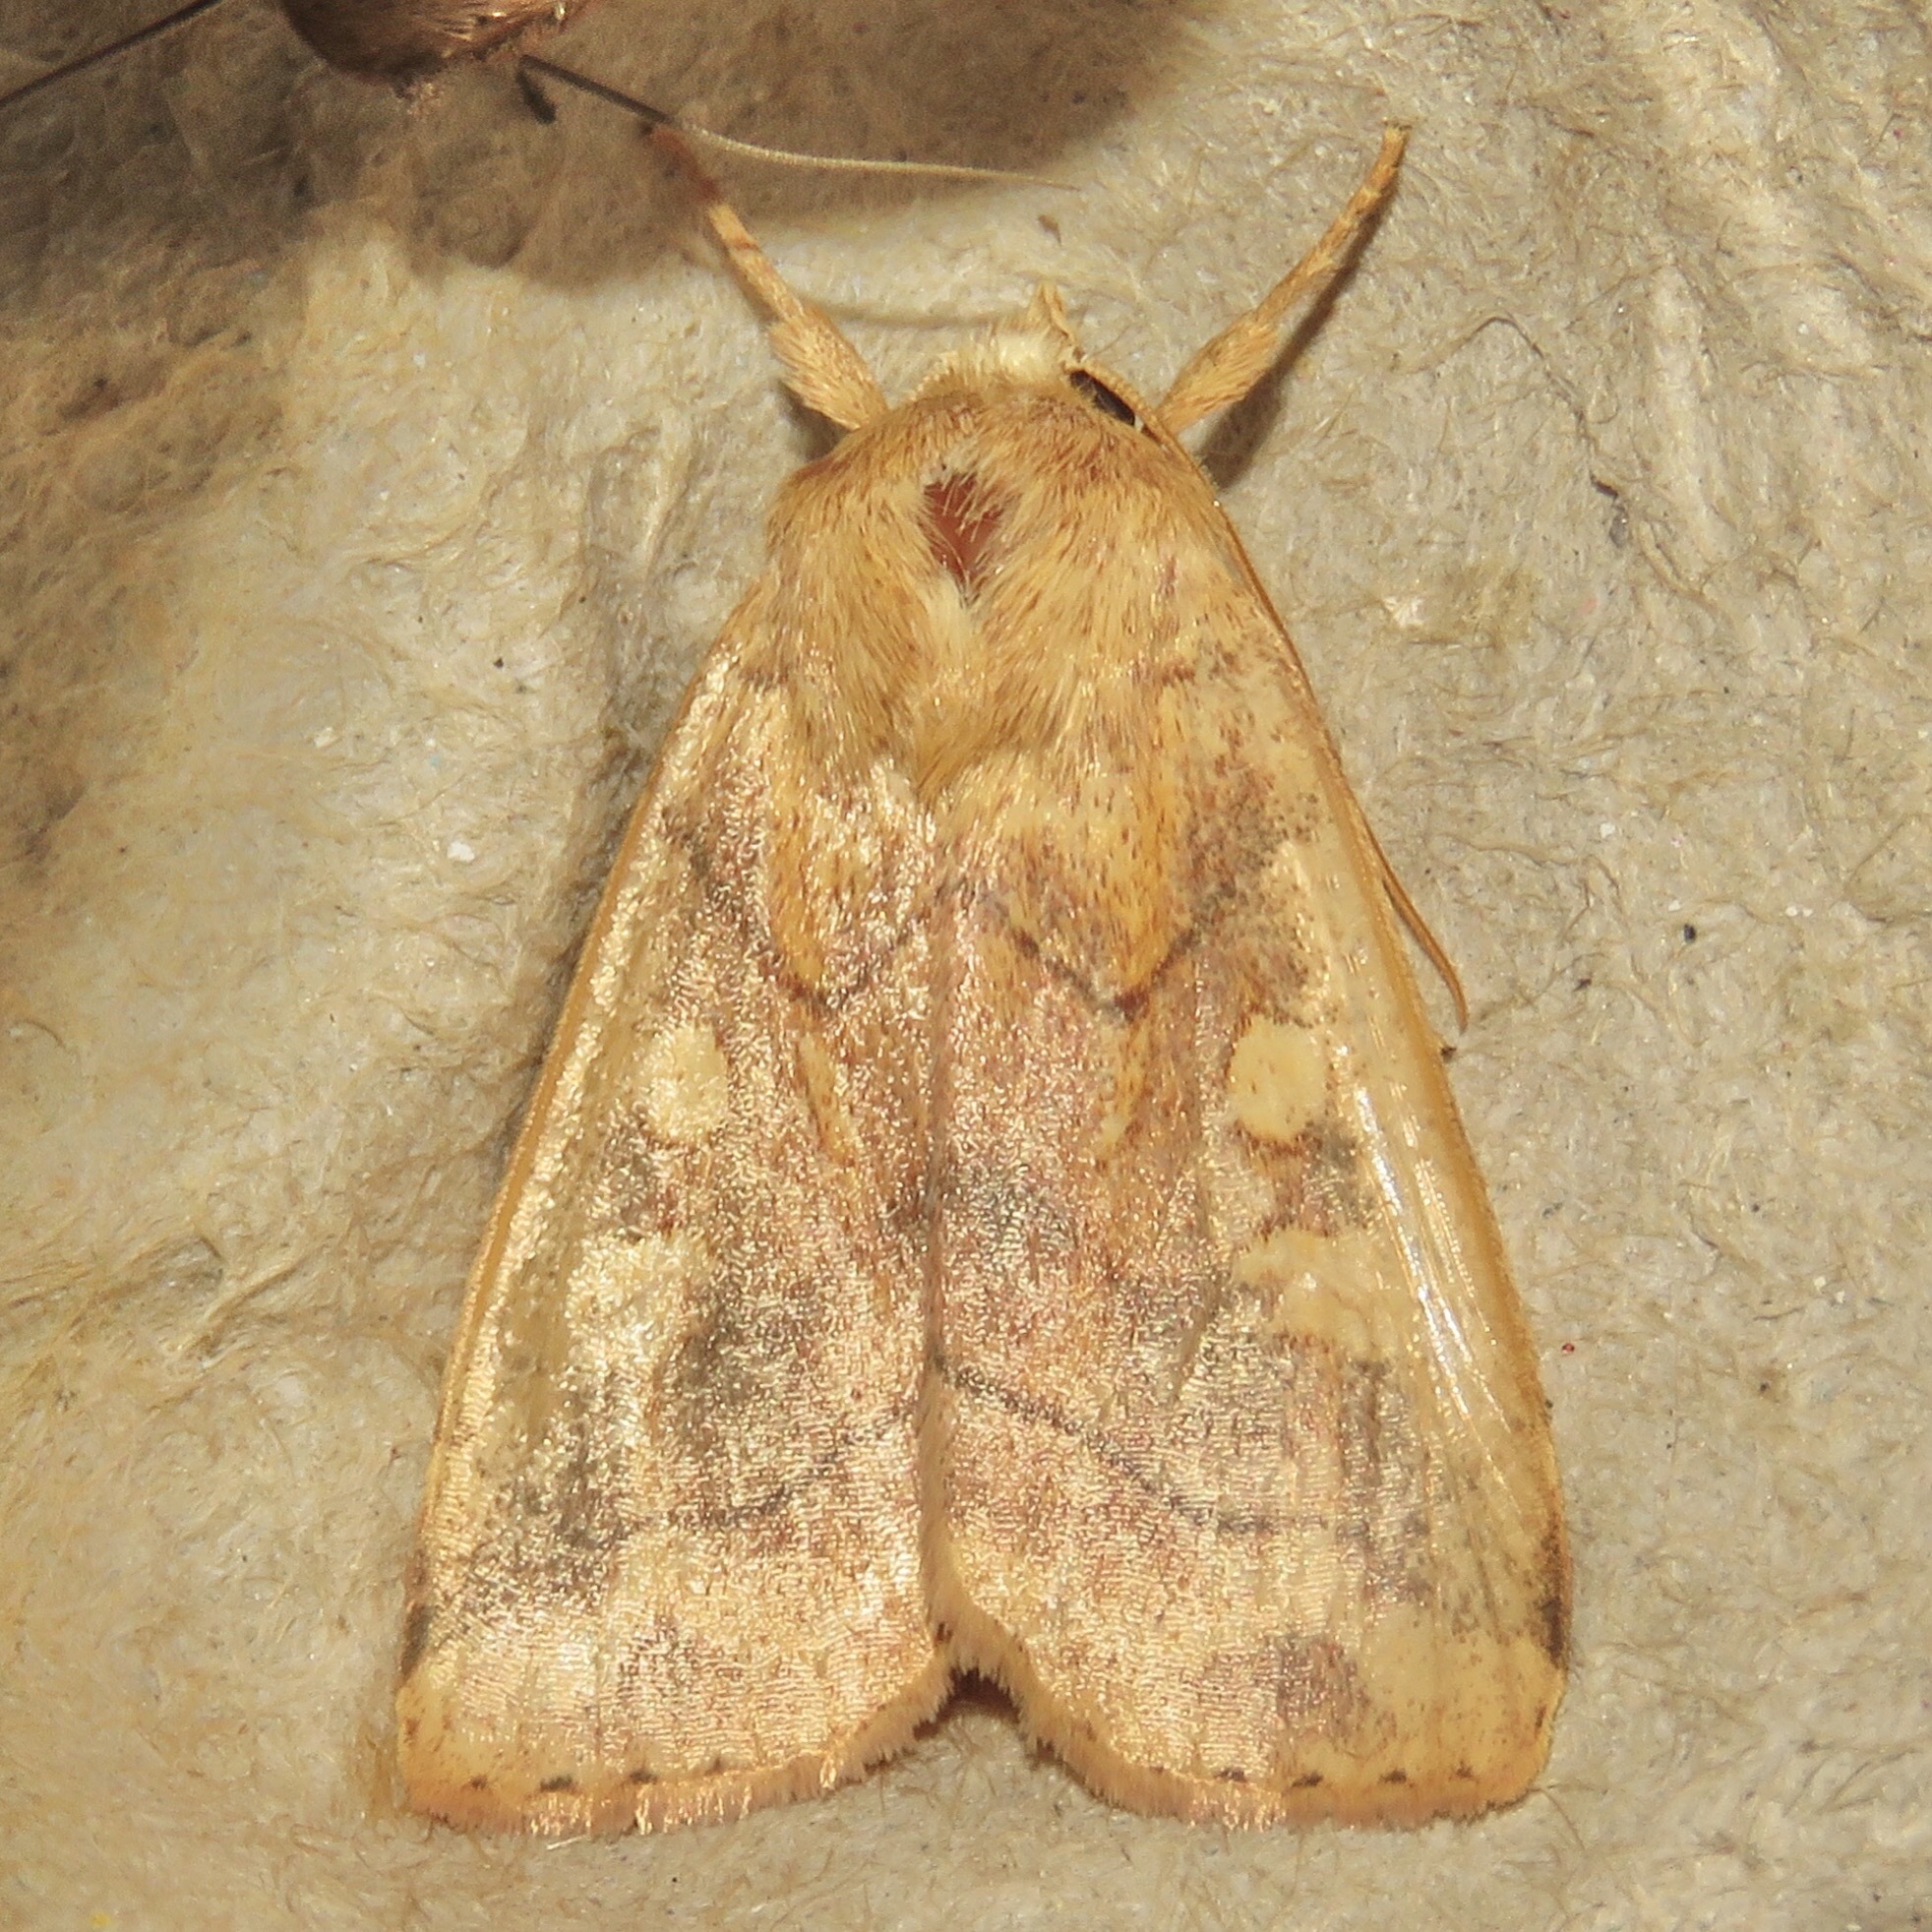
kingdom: Animalia
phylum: Arthropoda
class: Insecta
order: Lepidoptera
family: Noctuidae
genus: Enargia
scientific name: Enargia decolor
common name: Aspen twoleaf tier moth
